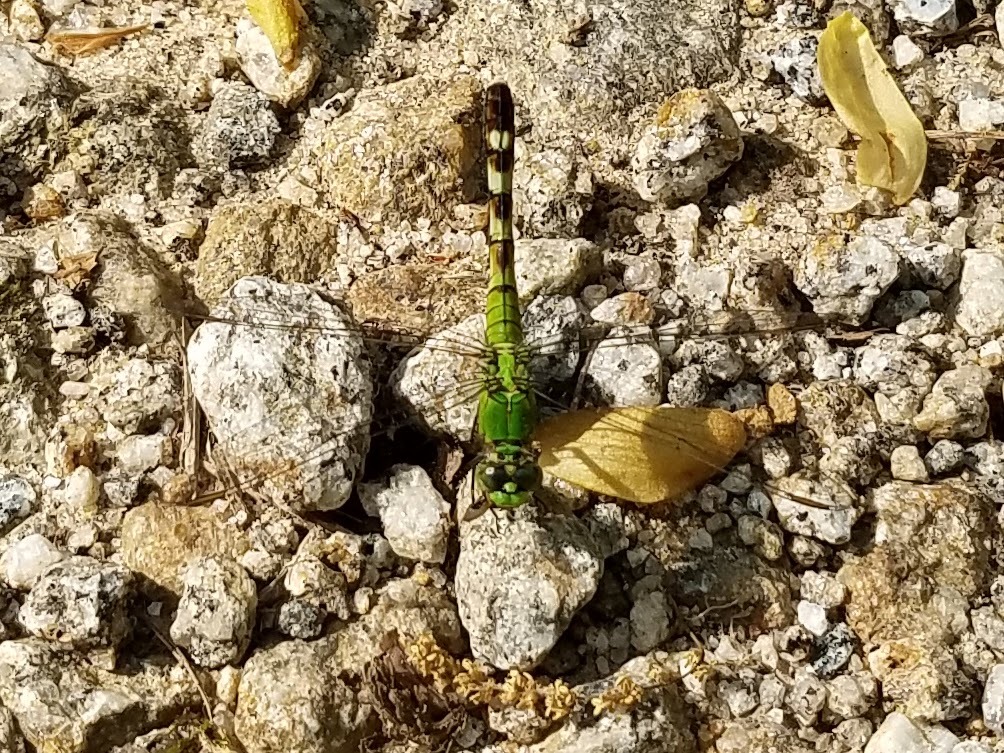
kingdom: Animalia
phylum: Arthropoda
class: Insecta
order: Odonata
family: Libellulidae
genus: Erythemis
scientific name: Erythemis simplicicollis
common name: Eastern pondhawk
